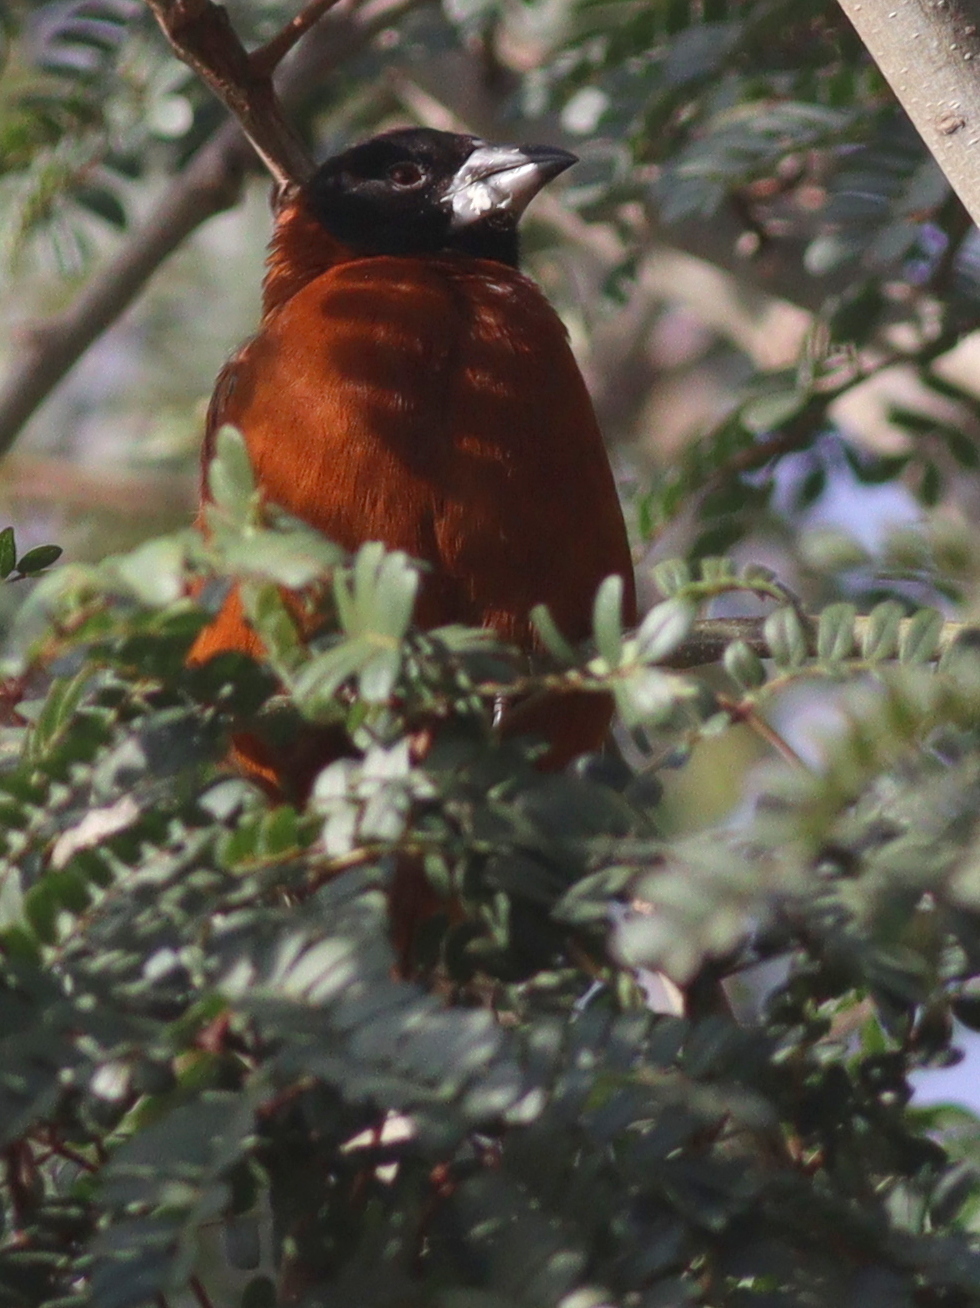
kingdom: Animalia
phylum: Chordata
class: Aves
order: Passeriformes
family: Ploceidae
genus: Ploceus
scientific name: Ploceus rubiginosus
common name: Chestnut weaver
